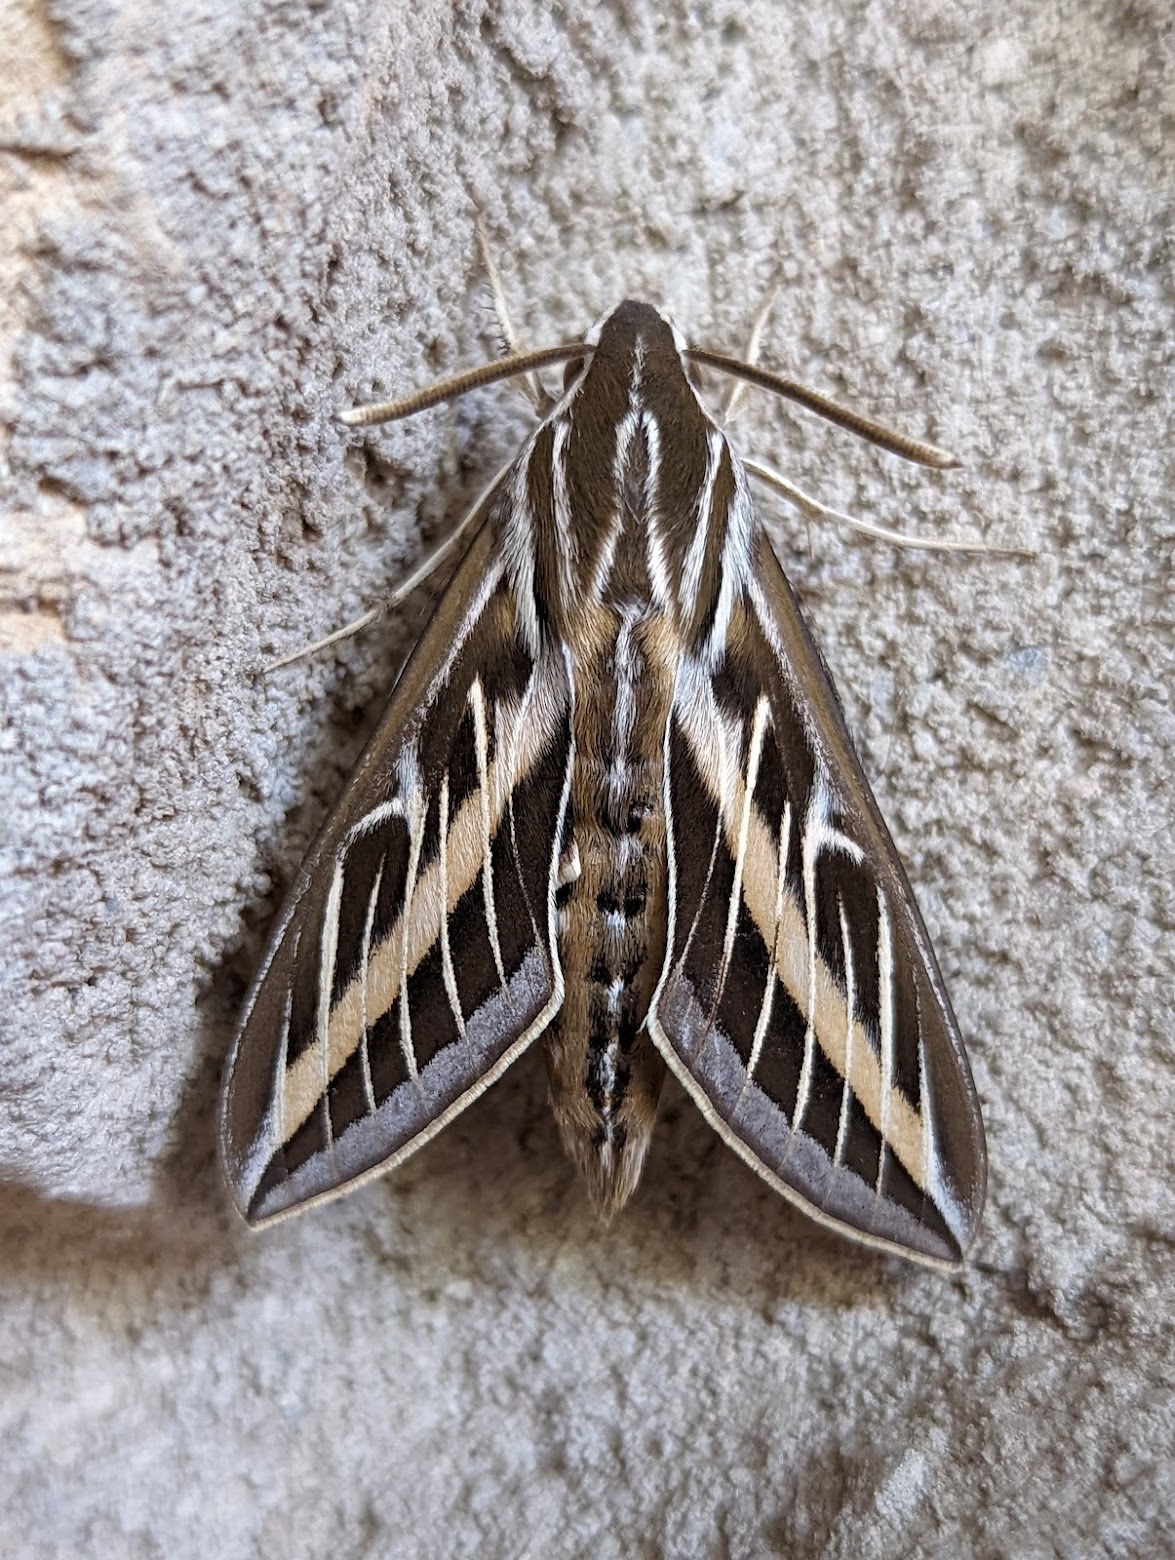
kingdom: Animalia
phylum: Arthropoda
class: Insecta
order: Lepidoptera
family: Sphingidae
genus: Hyles
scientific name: Hyles lineata
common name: White-lined sphinx
